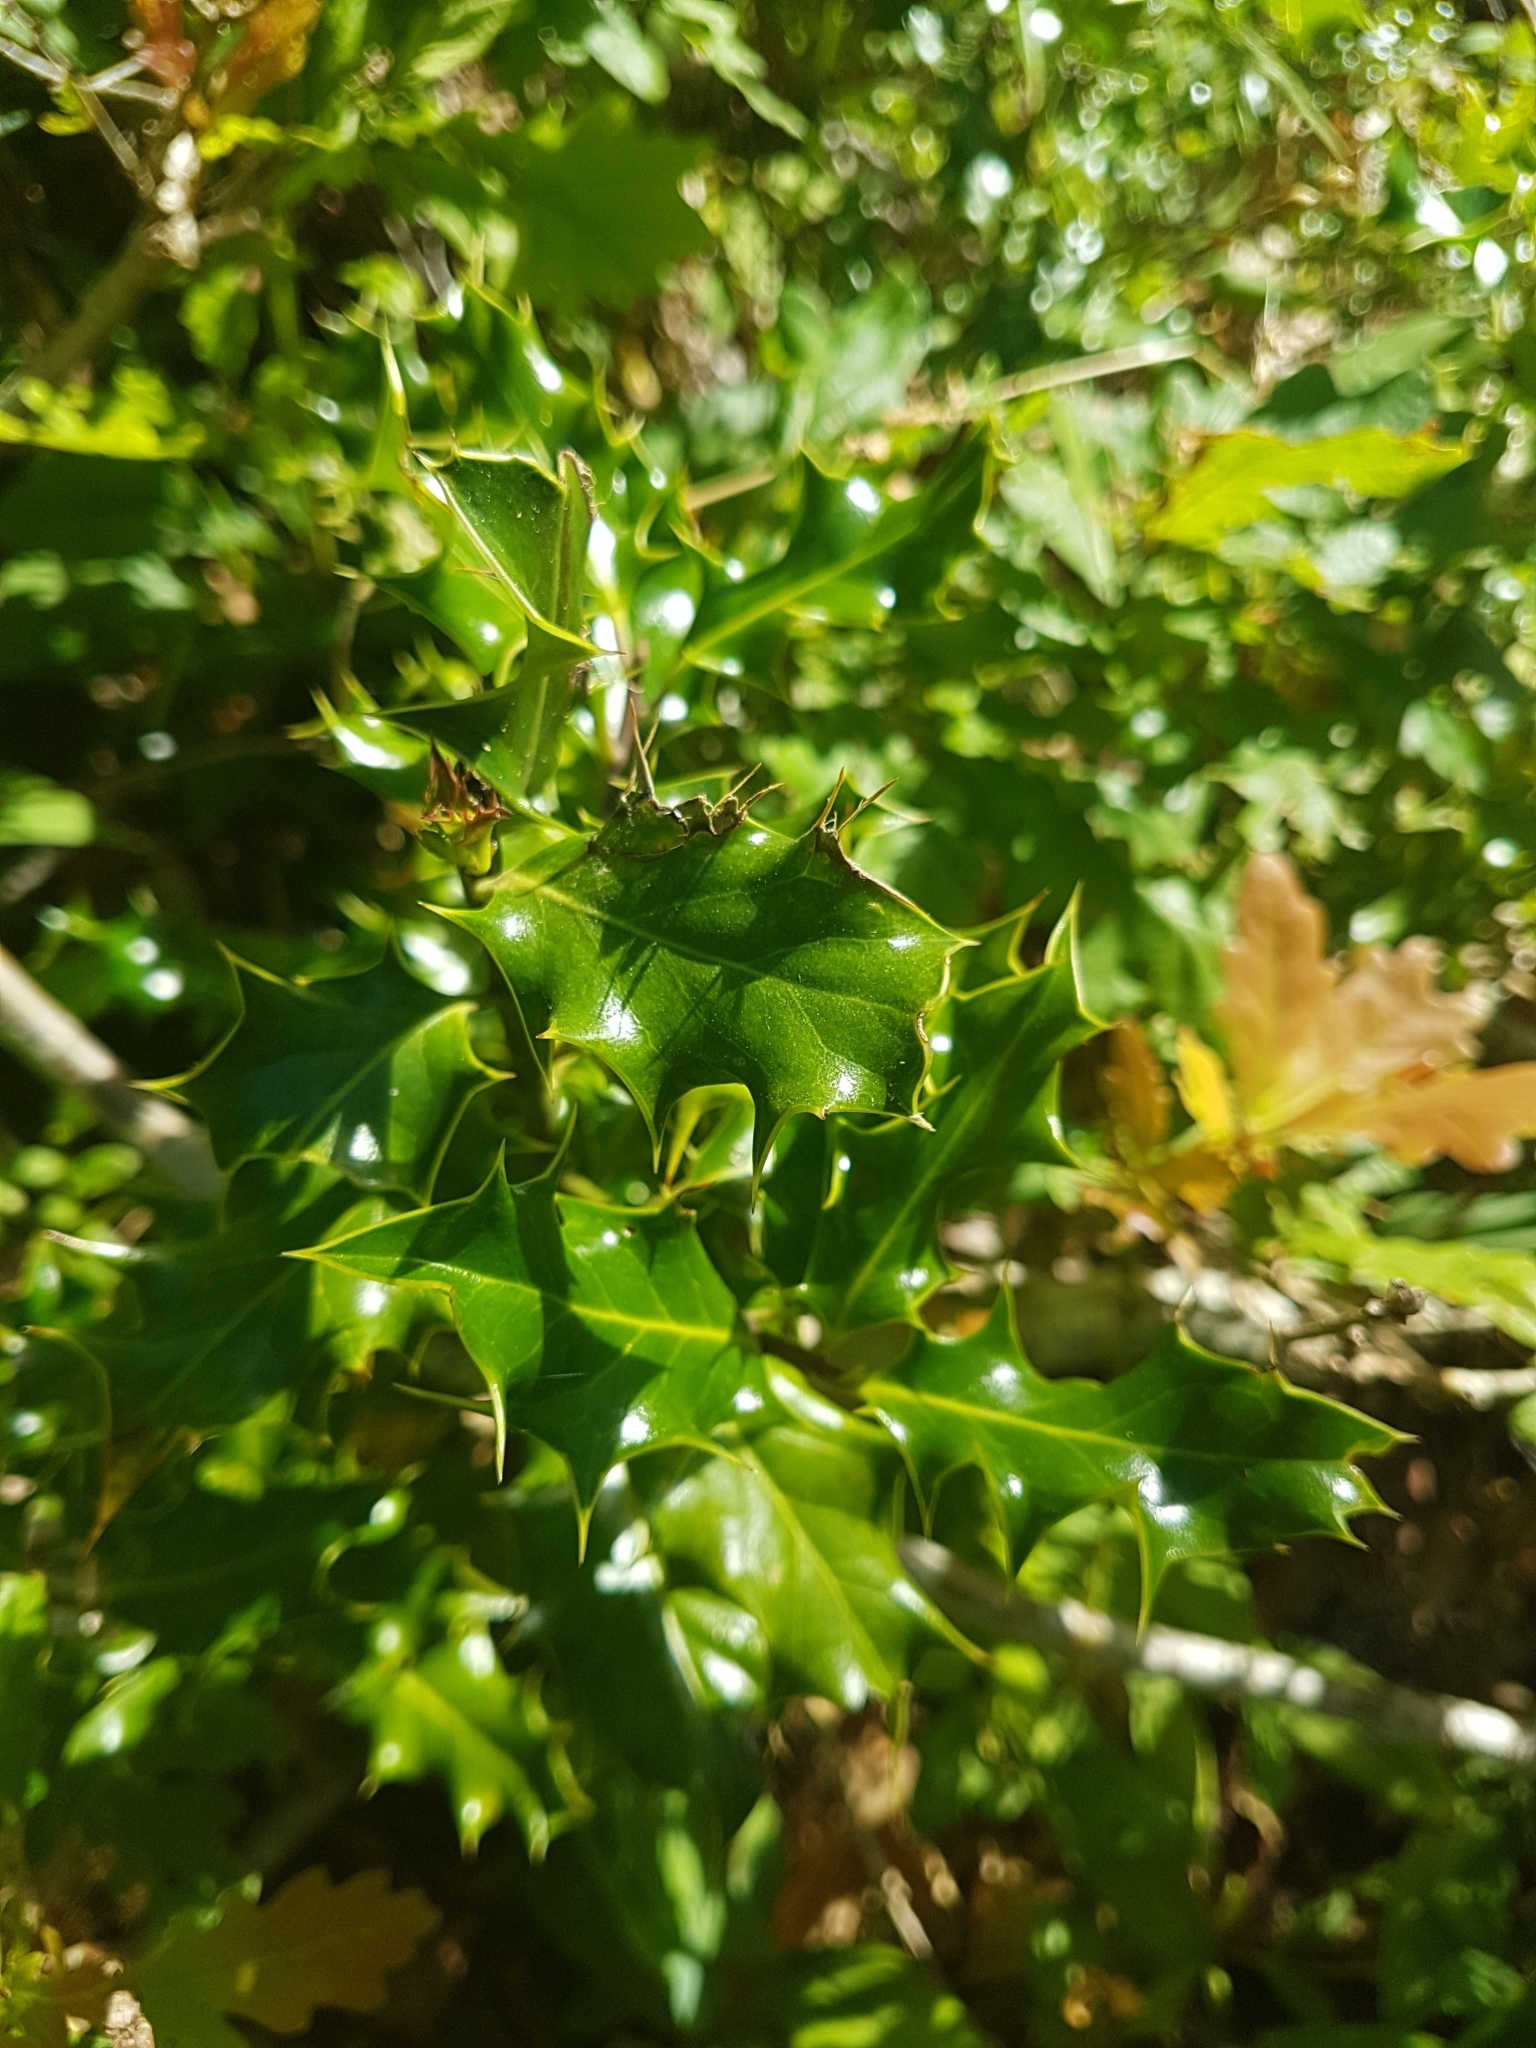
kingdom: Plantae
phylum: Tracheophyta
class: Magnoliopsida
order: Aquifoliales
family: Aquifoliaceae
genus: Ilex
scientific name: Ilex aquifolium
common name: English holly
